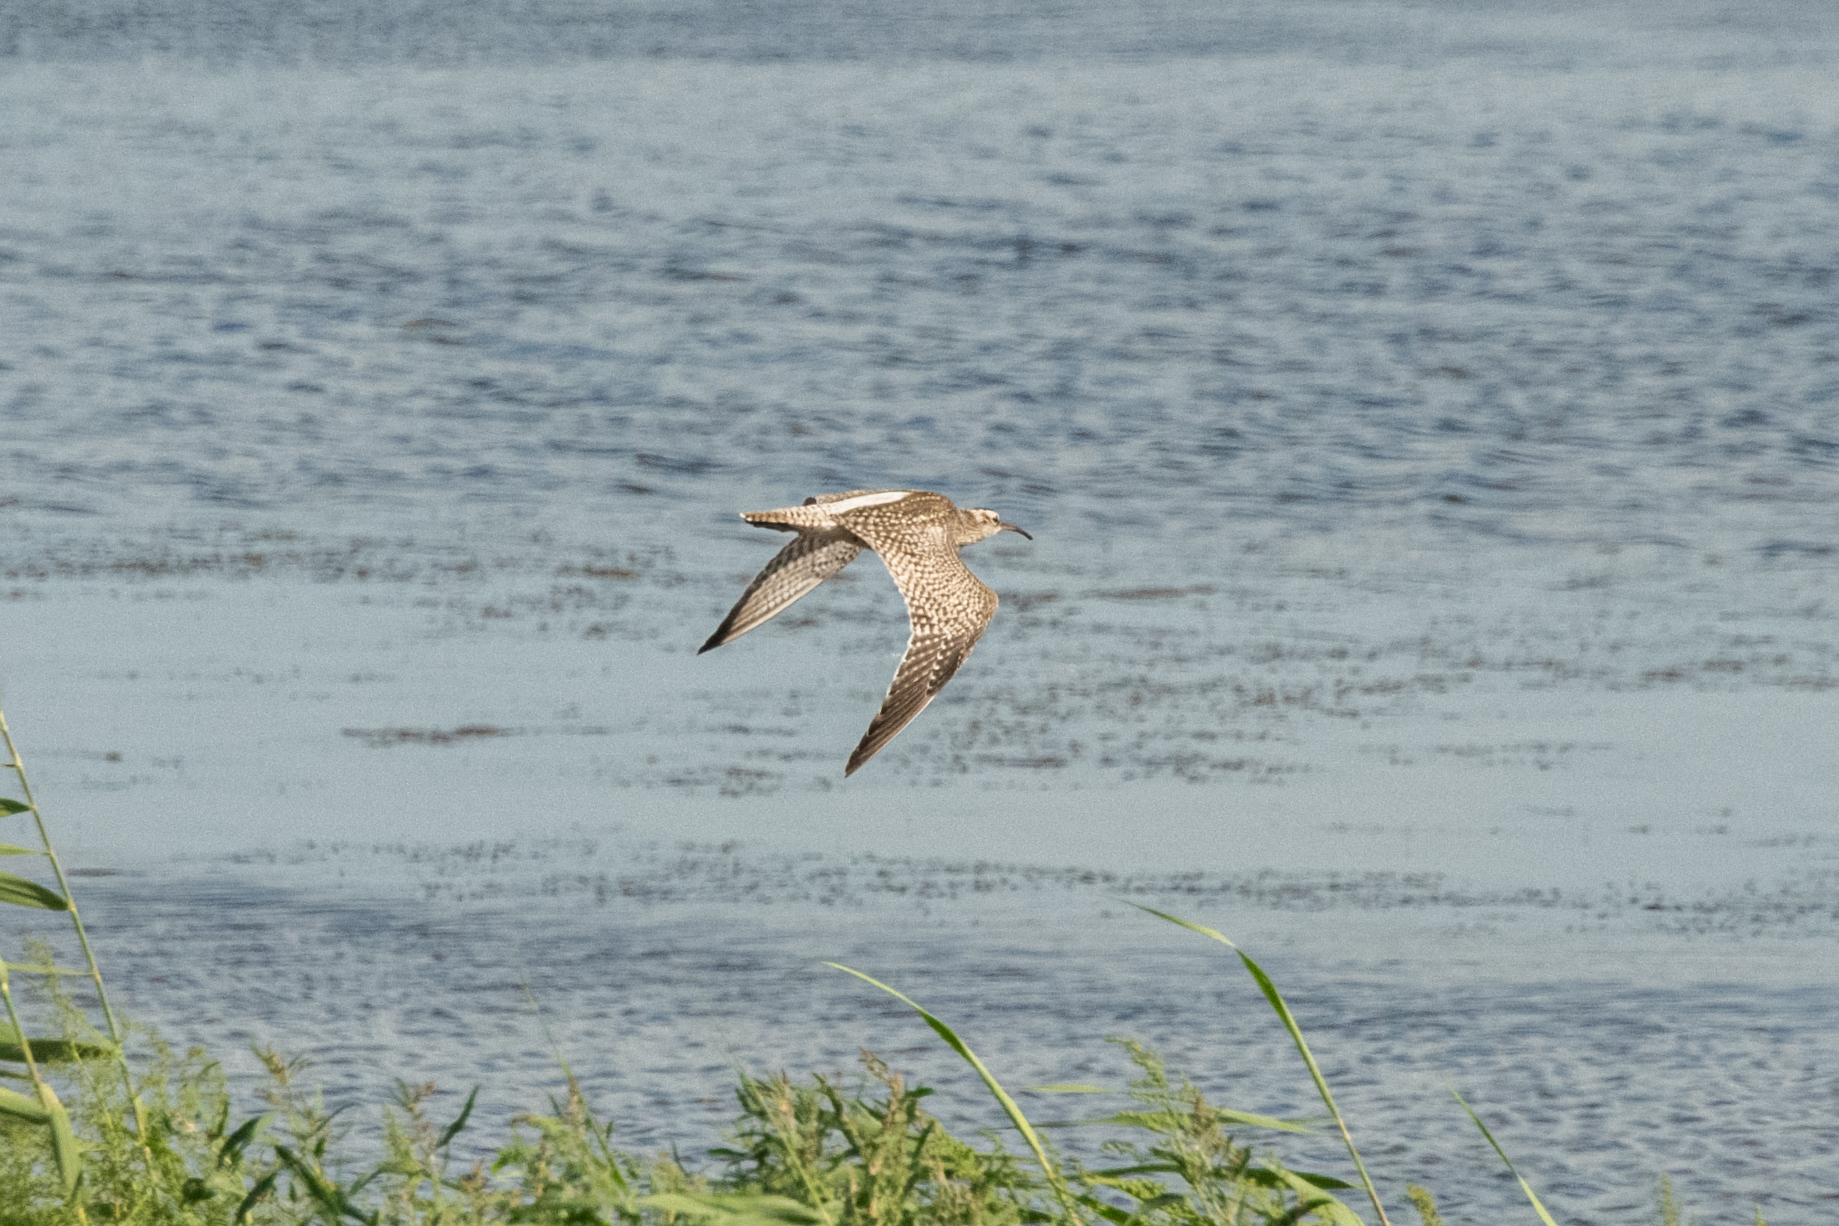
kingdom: Animalia
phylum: Chordata
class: Aves
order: Charadriiformes
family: Scolopacidae
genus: Numenius
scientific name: Numenius phaeopus
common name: Whimbrel
